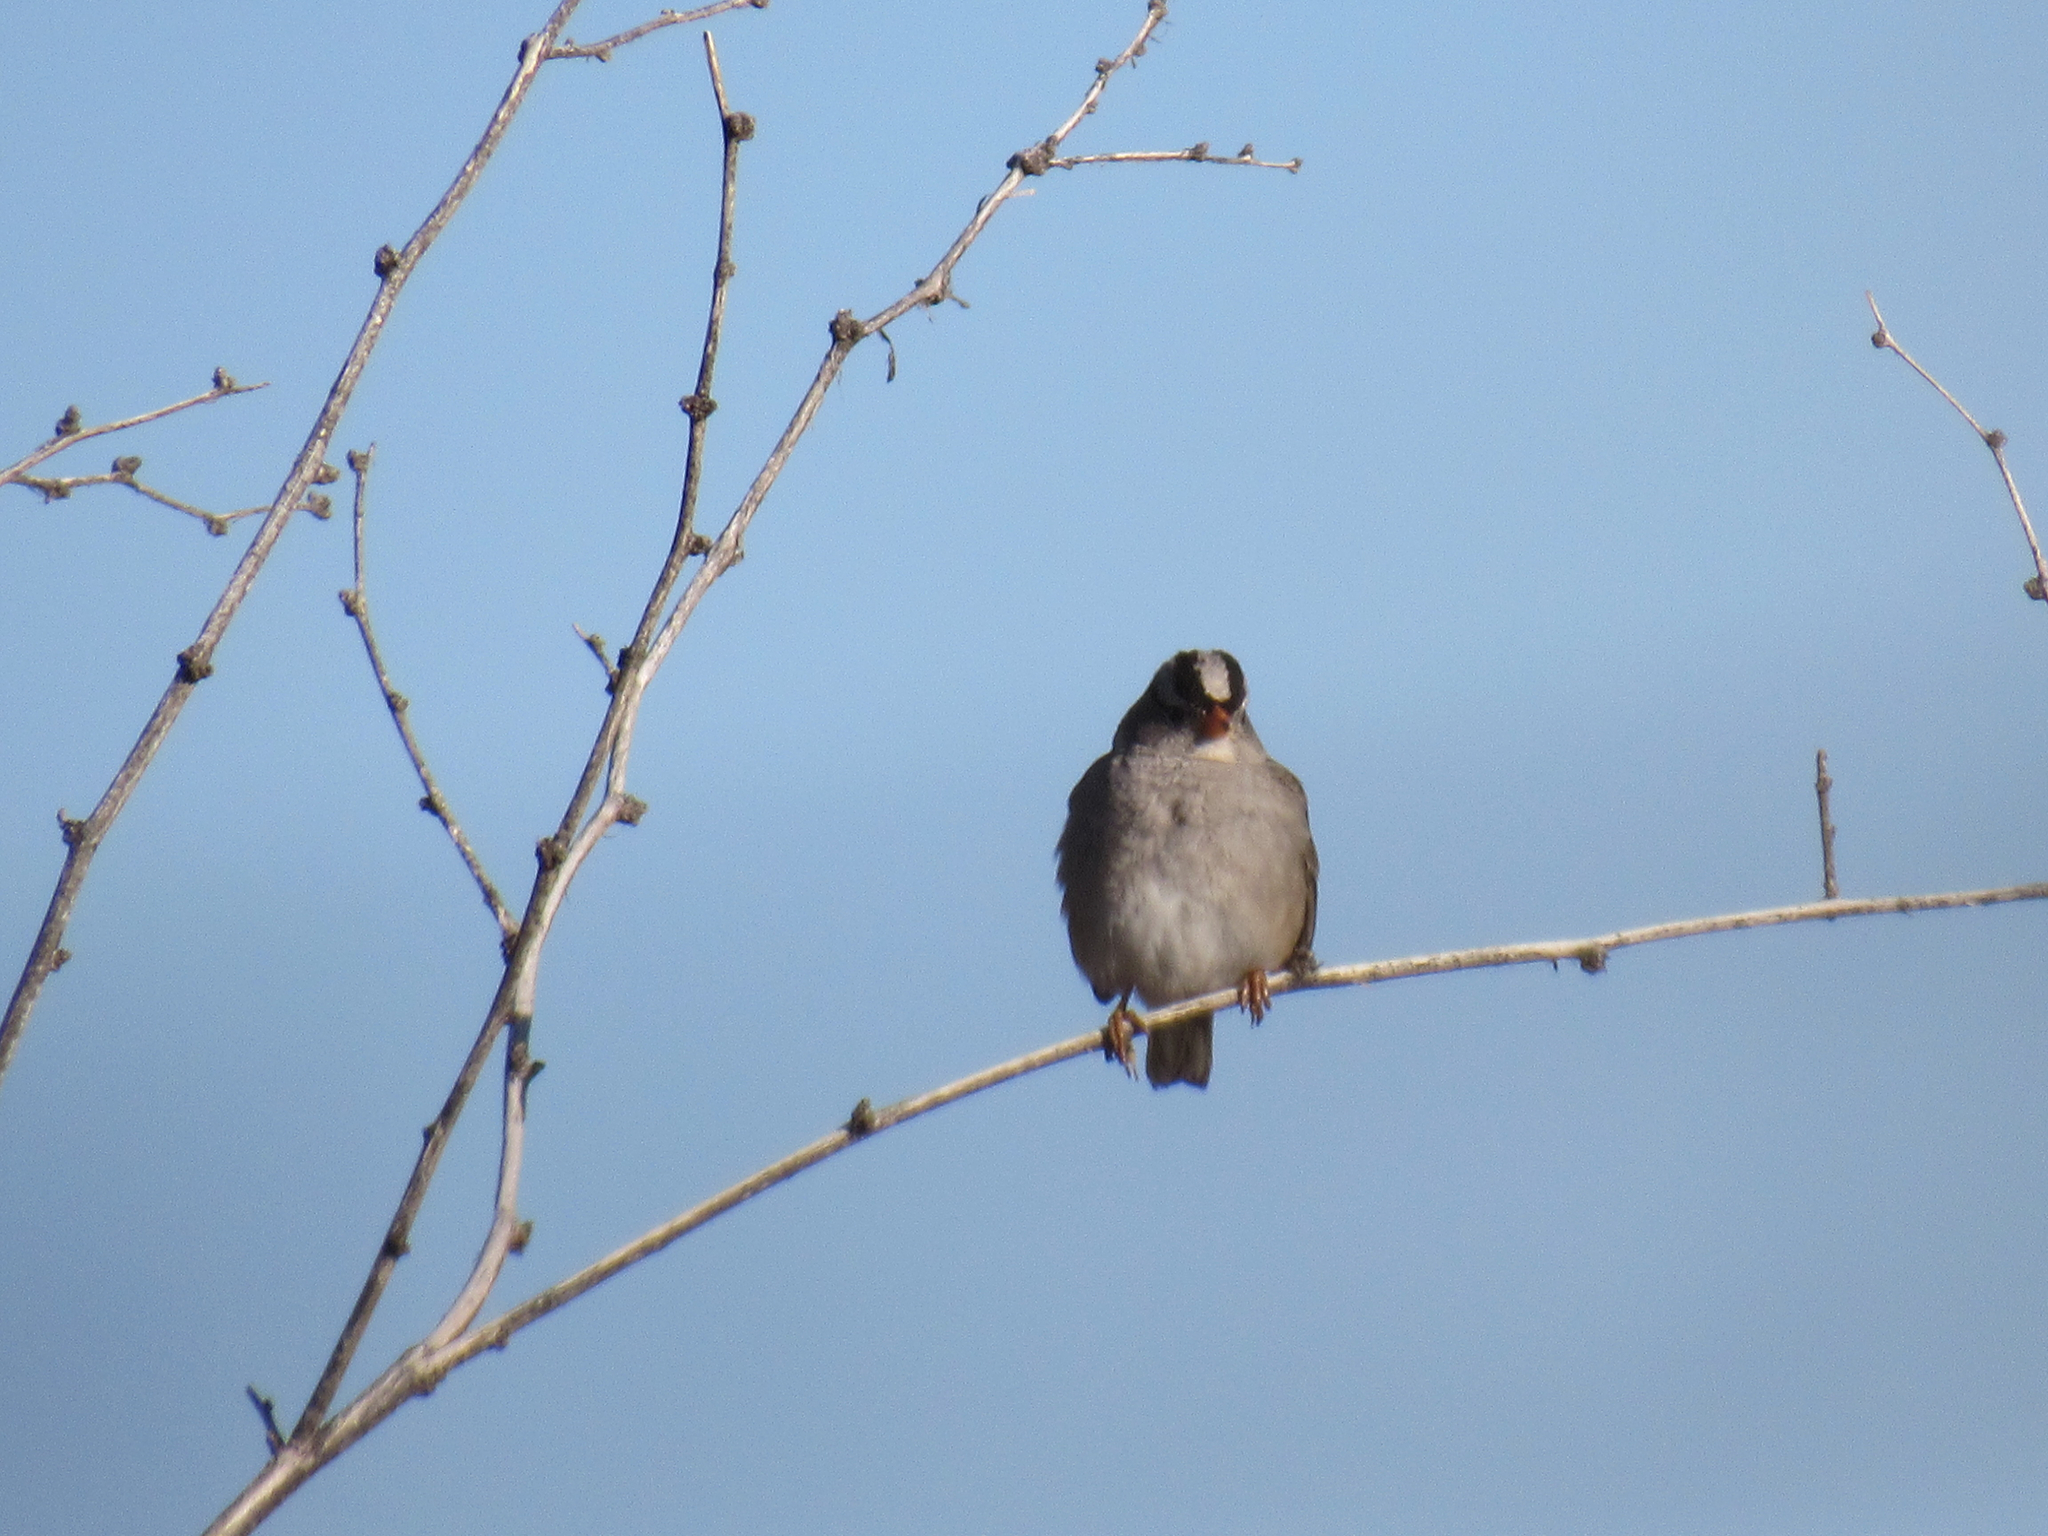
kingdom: Animalia
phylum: Chordata
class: Aves
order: Passeriformes
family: Passerellidae
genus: Zonotrichia
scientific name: Zonotrichia leucophrys
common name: White-crowned sparrow
